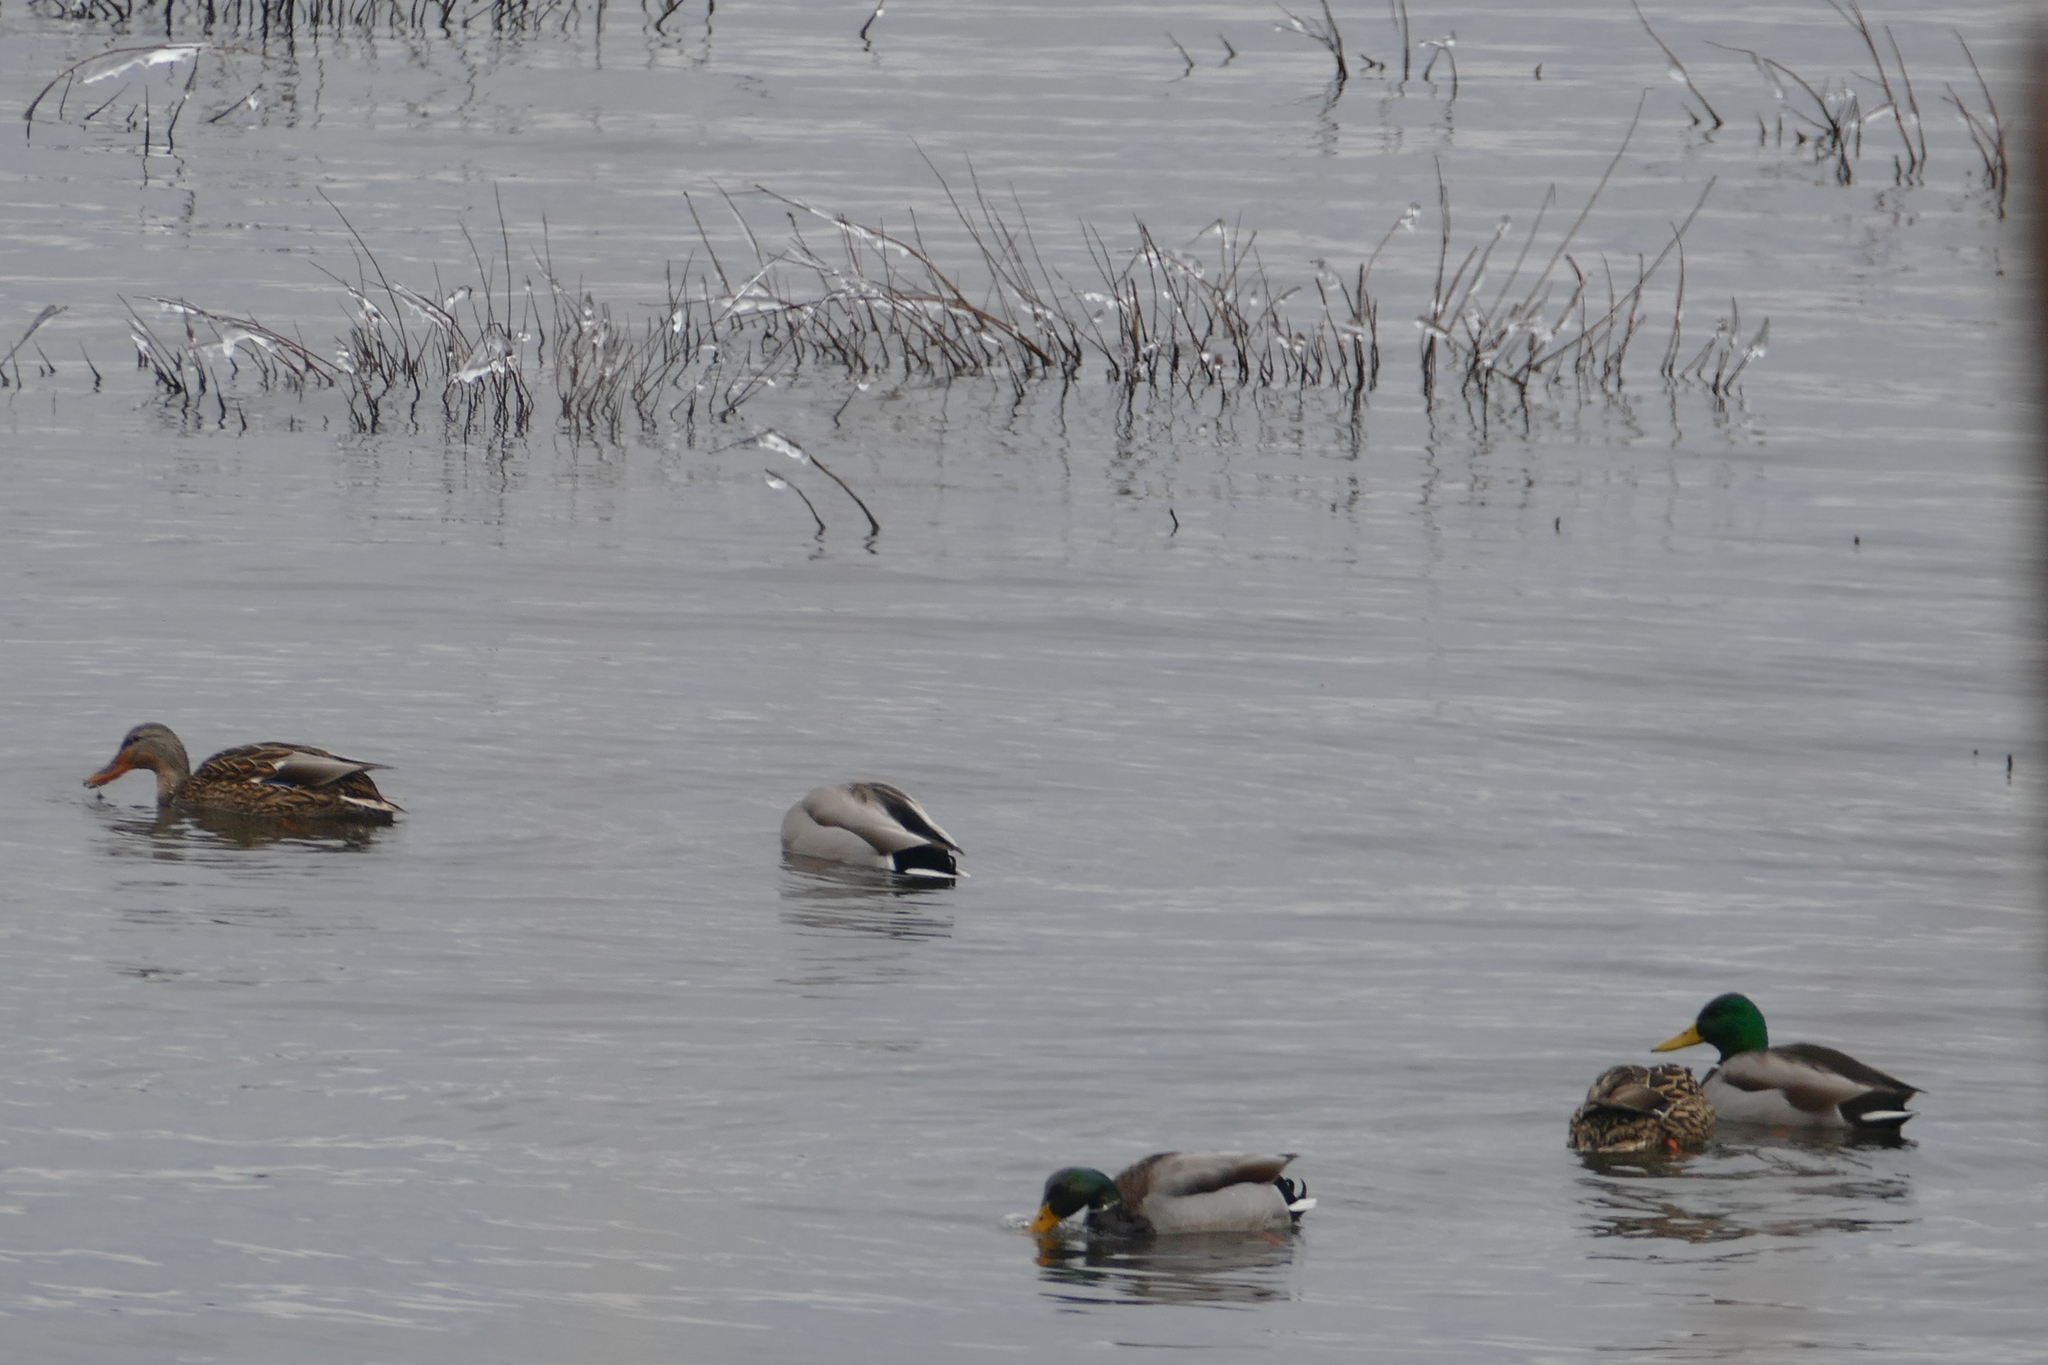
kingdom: Animalia
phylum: Chordata
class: Aves
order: Anseriformes
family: Anatidae
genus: Anas
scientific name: Anas platyrhynchos
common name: Mallard
